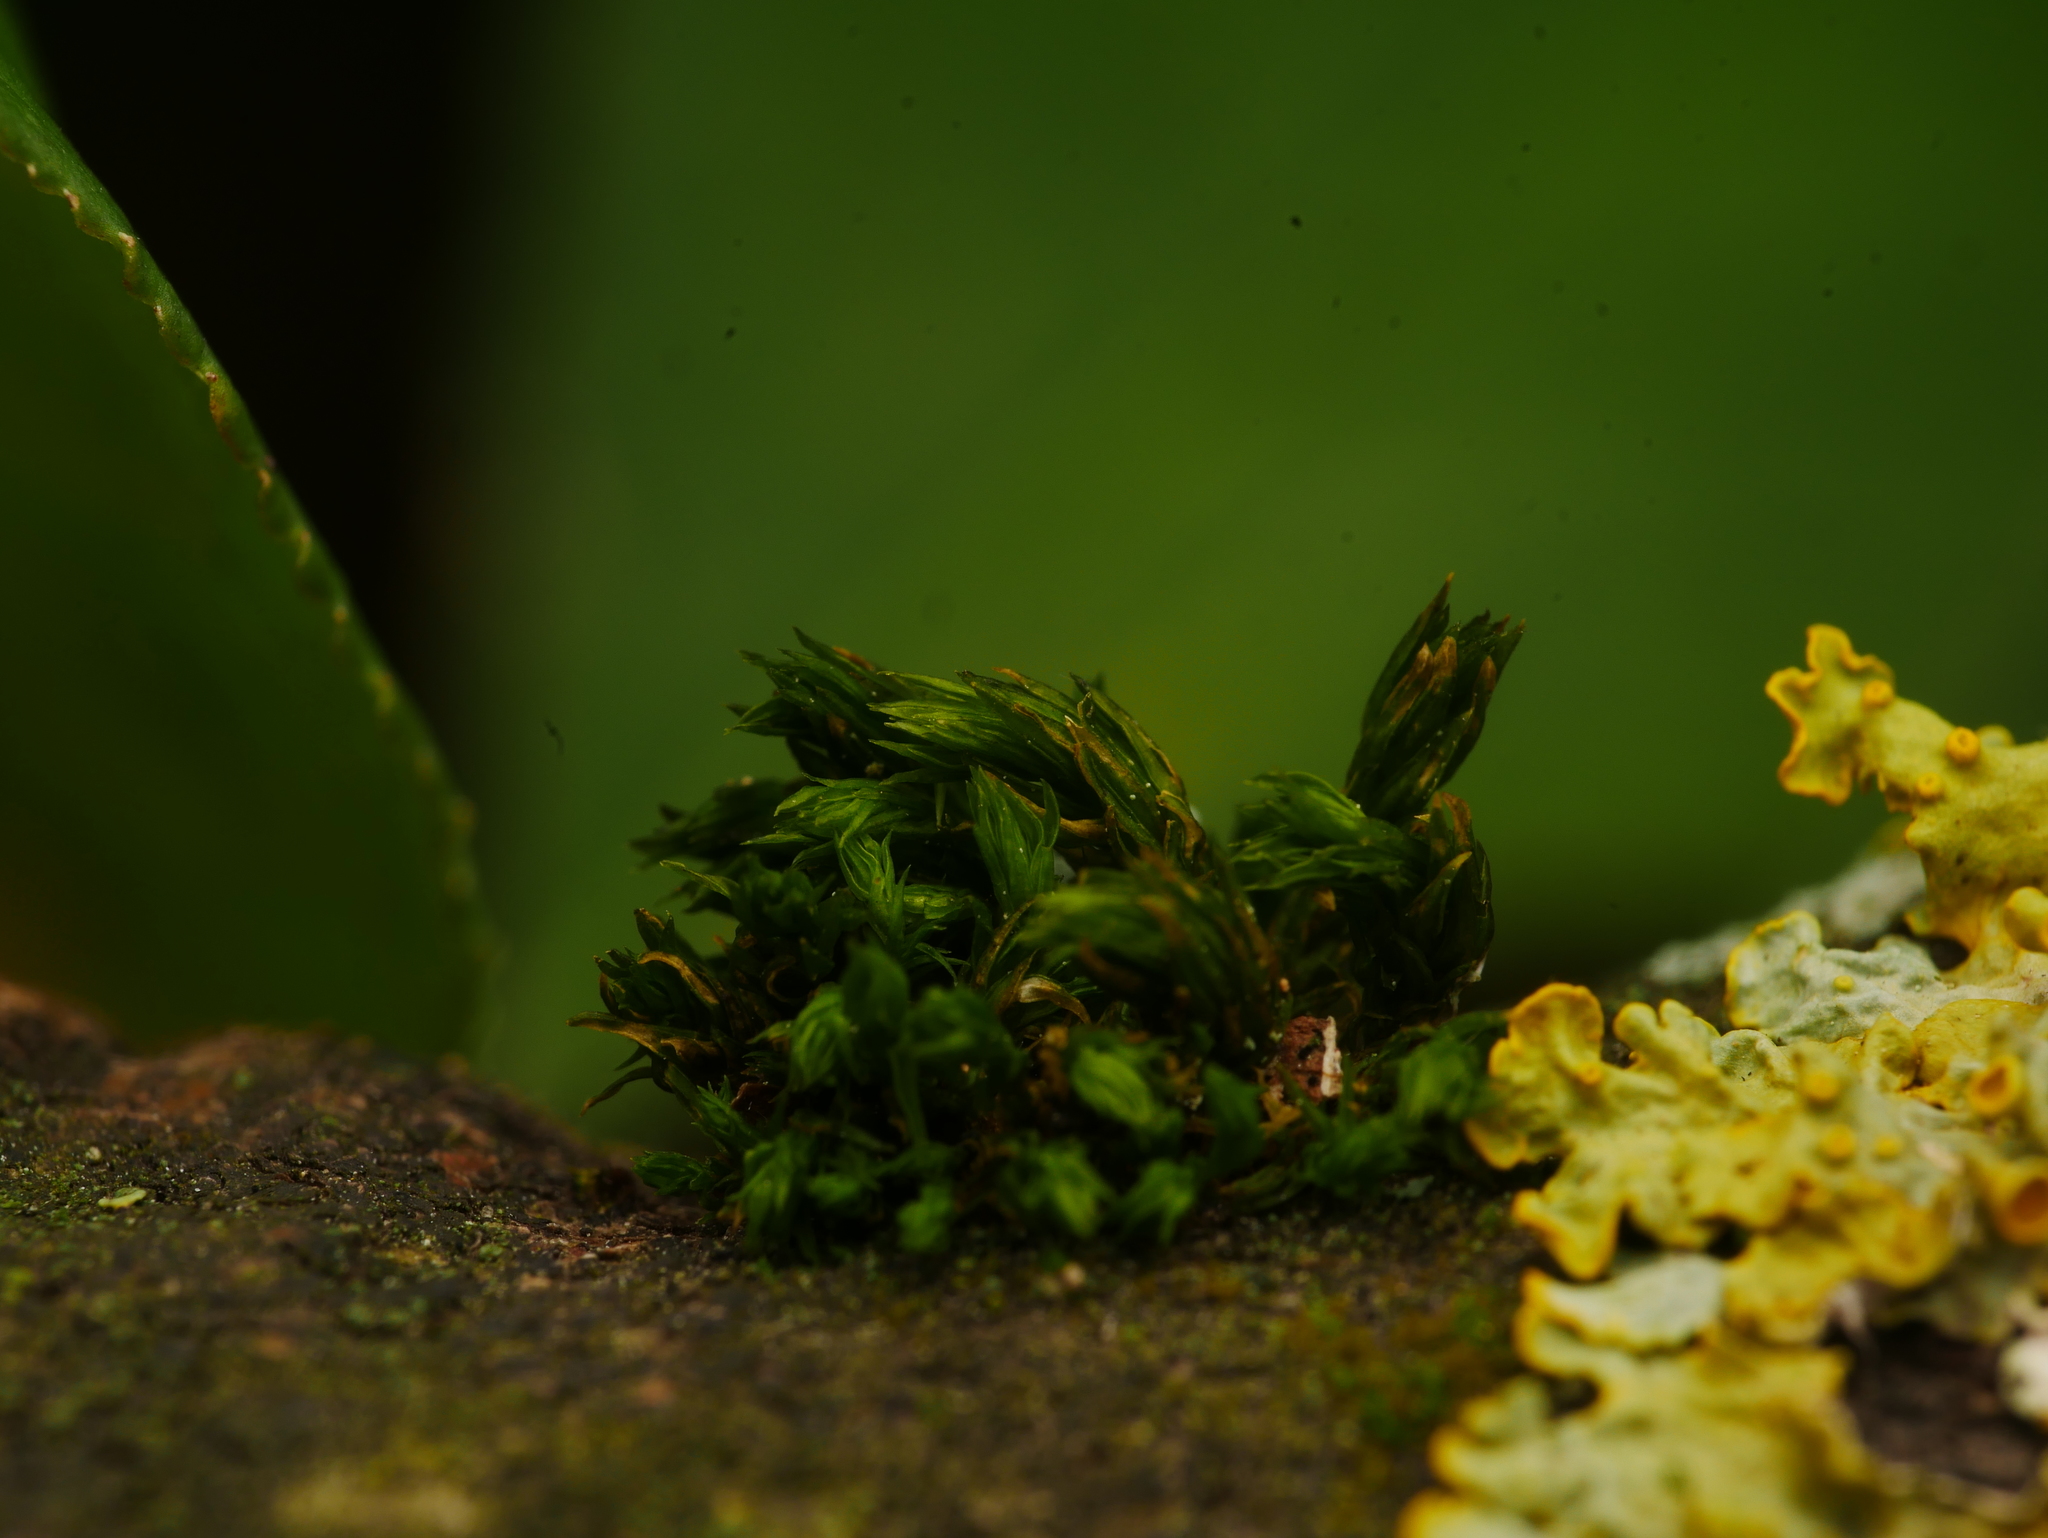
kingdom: Plantae
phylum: Bryophyta
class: Bryopsida
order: Orthotrichales
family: Orthotrichaceae
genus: Lewinskya
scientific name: Lewinskya affinis
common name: Wood bristle-moss
